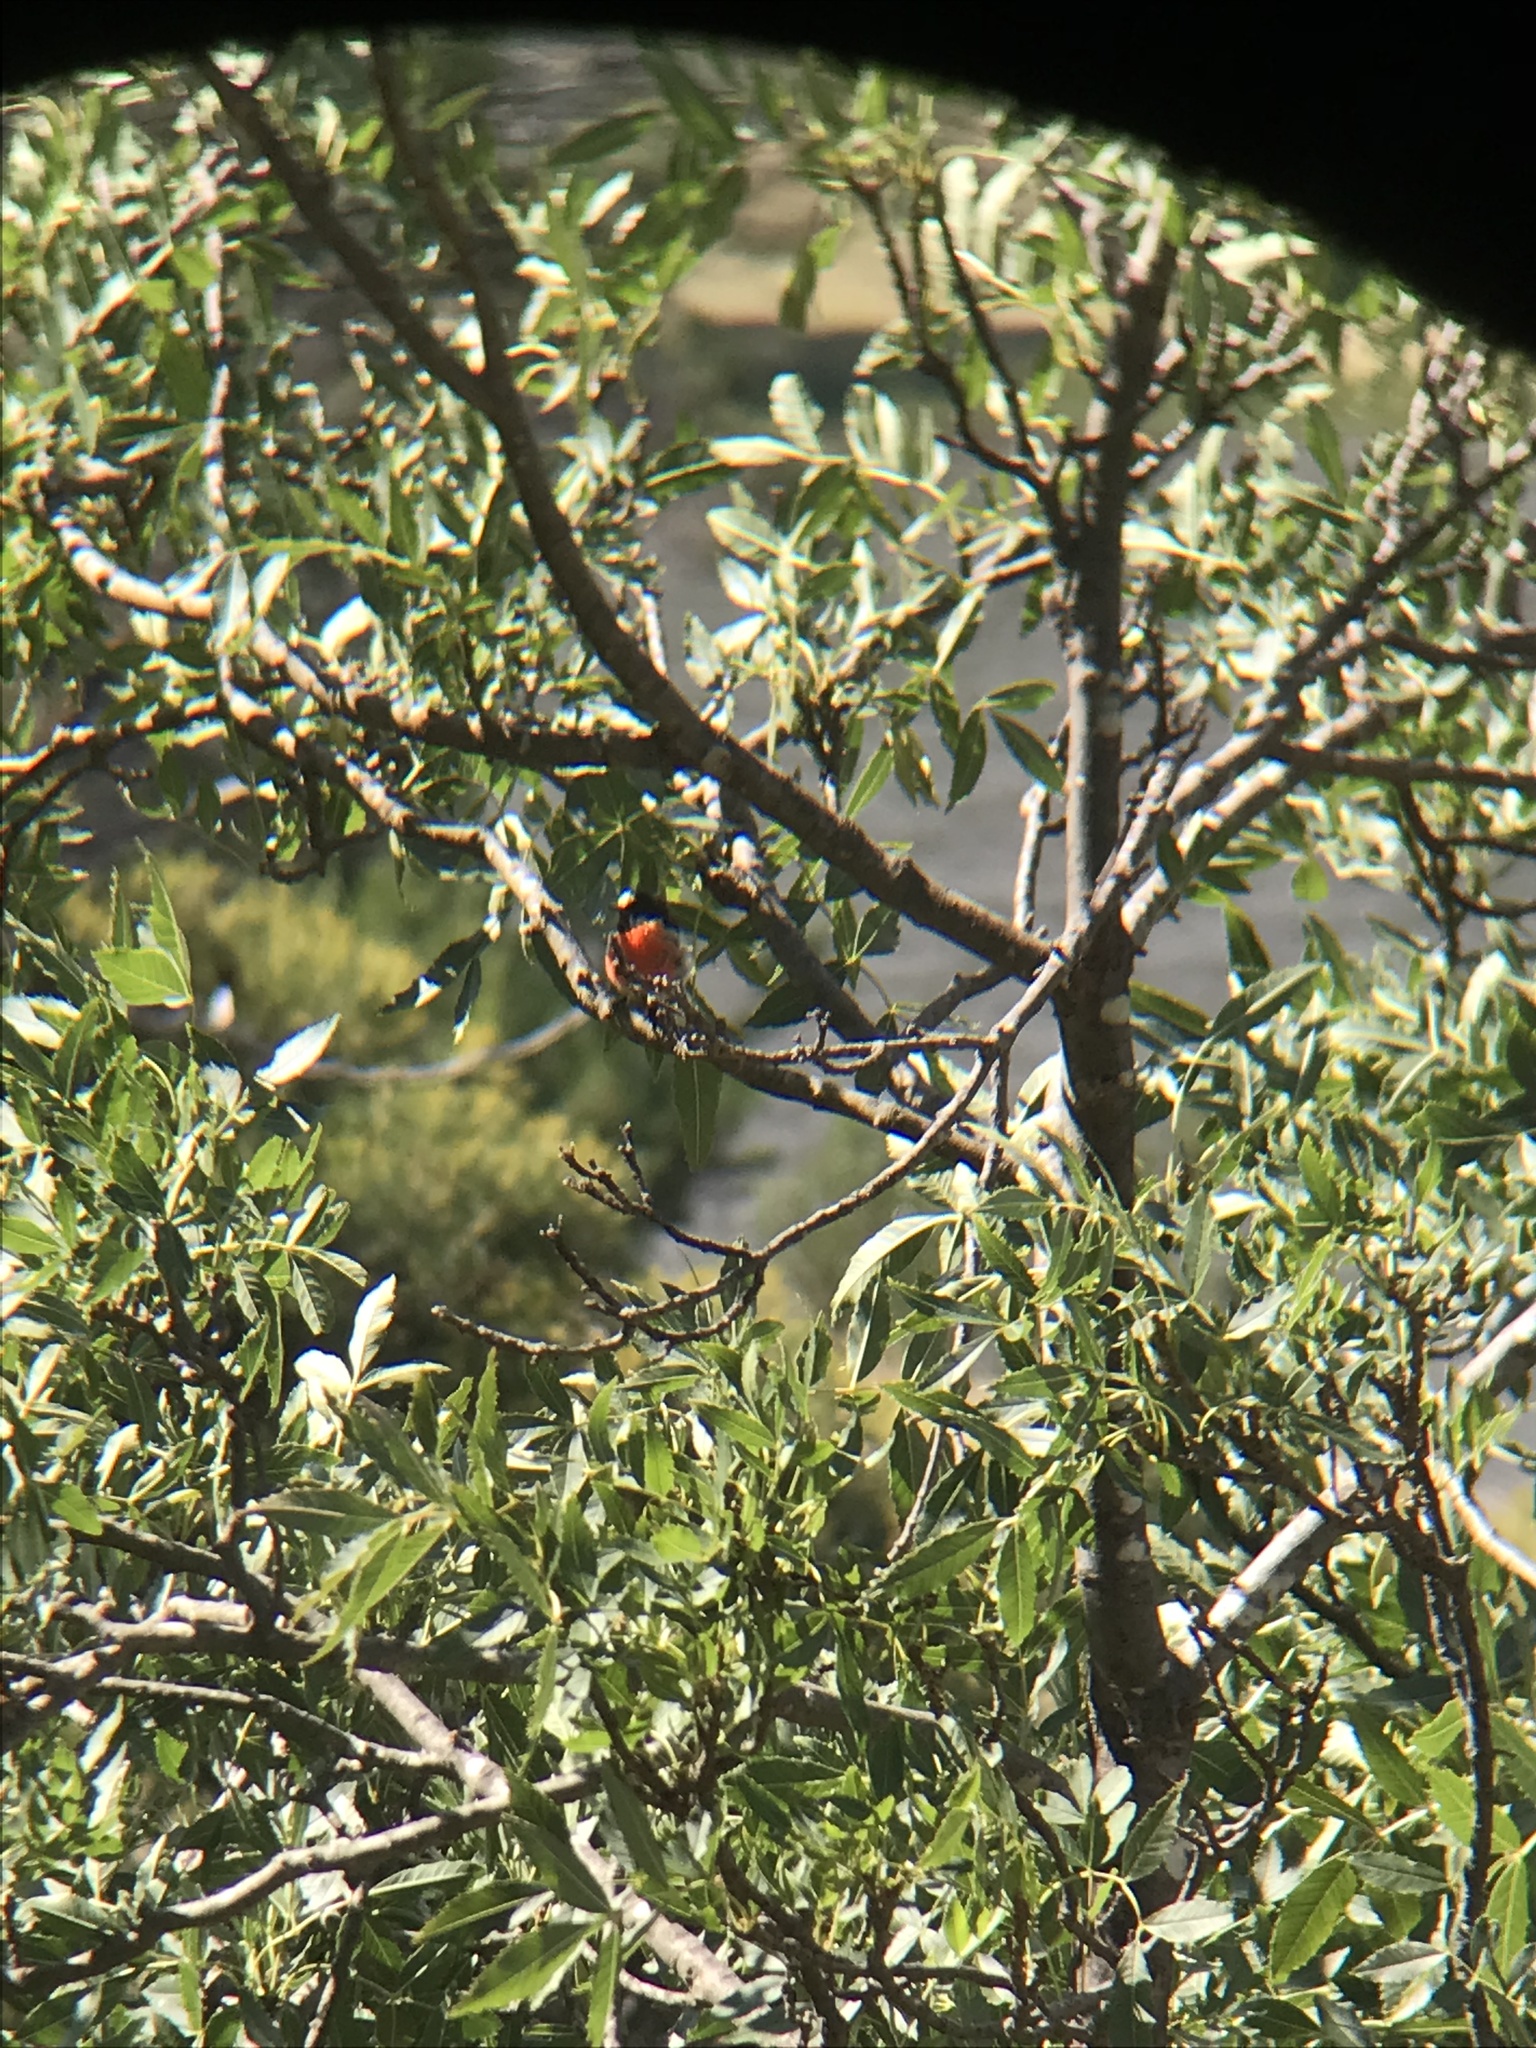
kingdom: Animalia
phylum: Chordata
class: Aves
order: Passeriformes
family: Petroicidae
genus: Petroica
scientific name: Petroica boodang
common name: Scarlet robin
